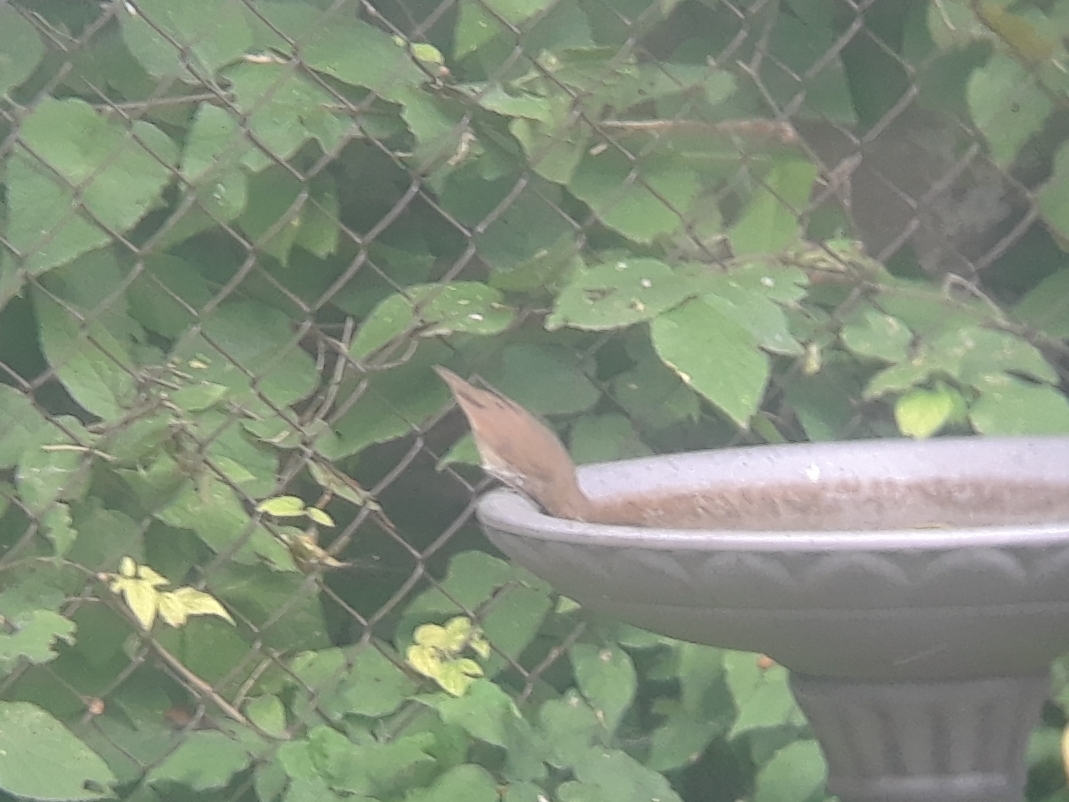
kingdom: Animalia
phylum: Chordata
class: Aves
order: Passeriformes
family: Turdidae
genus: Catharus
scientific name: Catharus ustulatus
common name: Swainson's thrush
